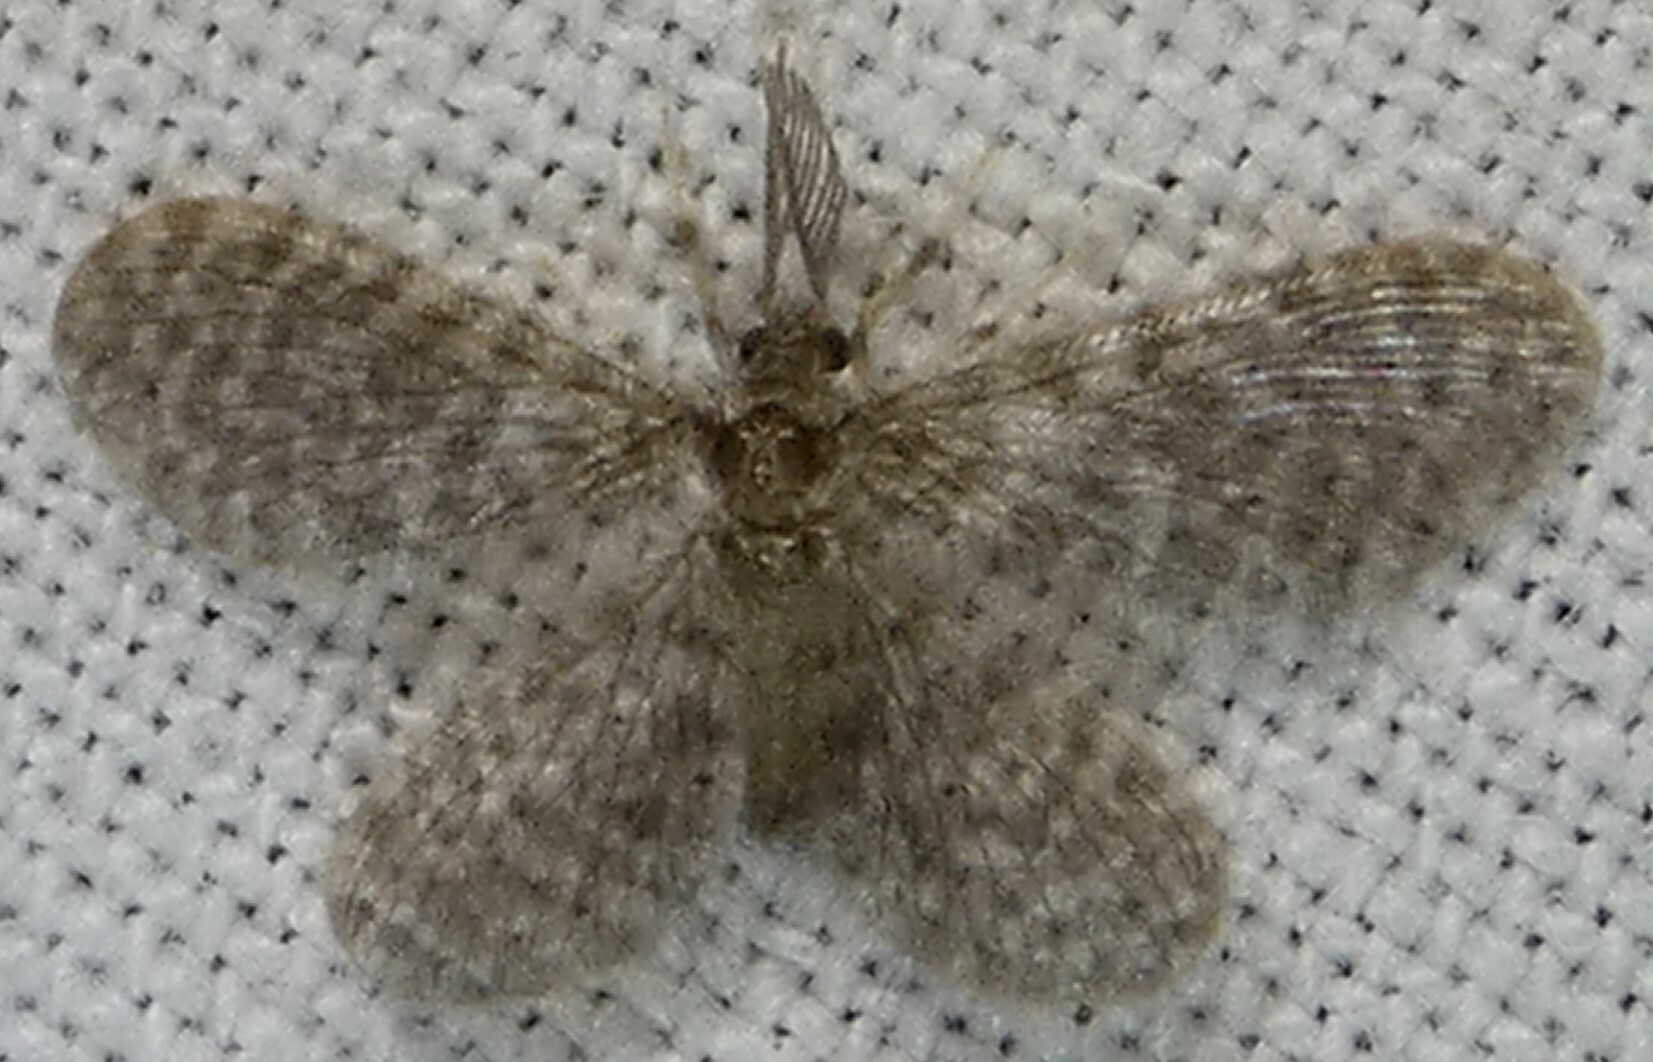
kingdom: Animalia
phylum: Arthropoda
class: Insecta
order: Neuroptera
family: Dilaridae
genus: Nallachius
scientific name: Nallachius americanus
